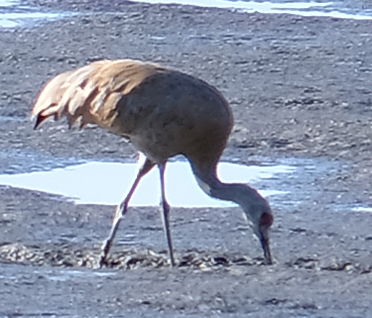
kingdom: Animalia
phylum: Chordata
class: Aves
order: Gruiformes
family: Gruidae
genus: Grus
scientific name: Grus canadensis
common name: Sandhill crane
